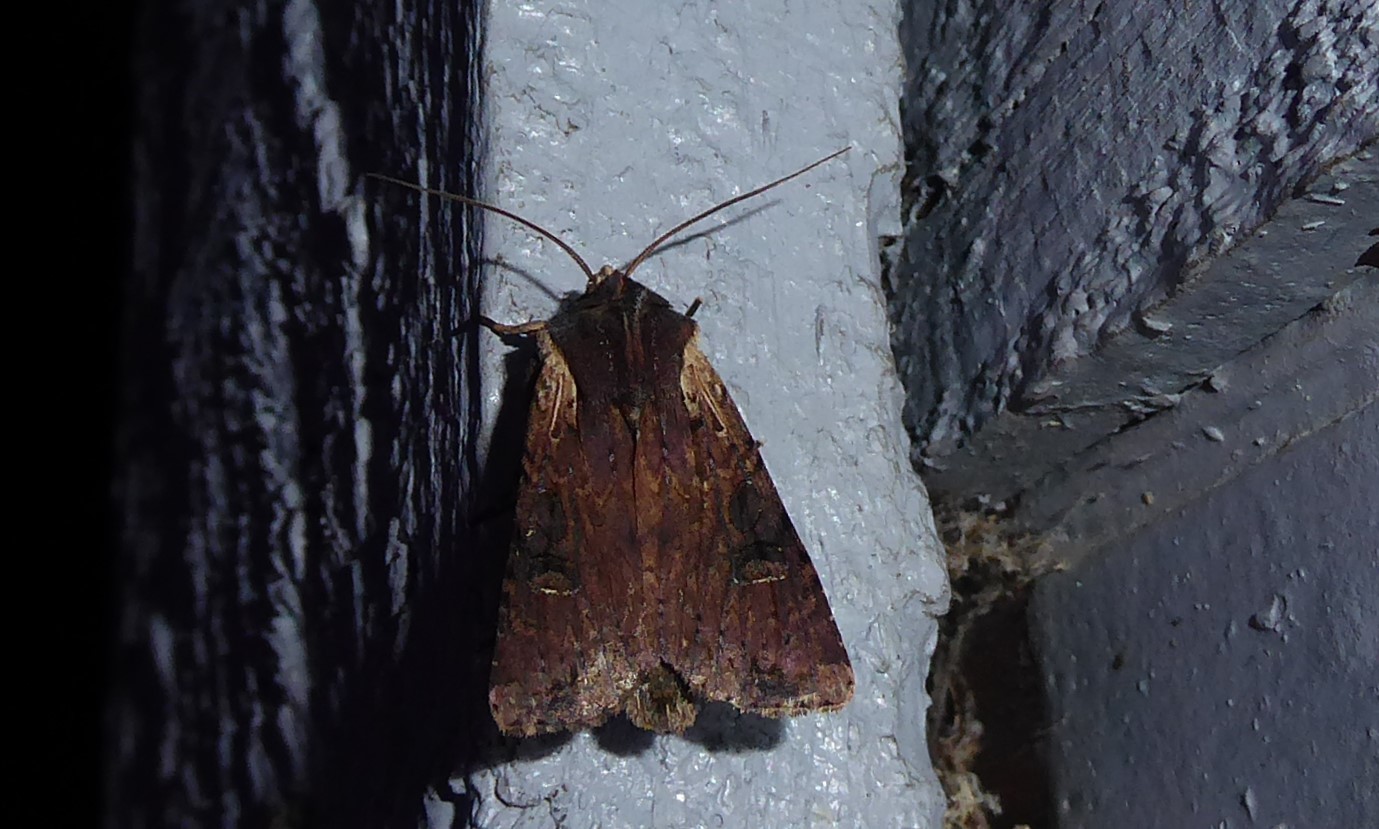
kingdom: Animalia
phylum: Arthropoda
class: Insecta
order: Lepidoptera
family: Noctuidae
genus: Ichneutica
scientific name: Ichneutica omoplaca
